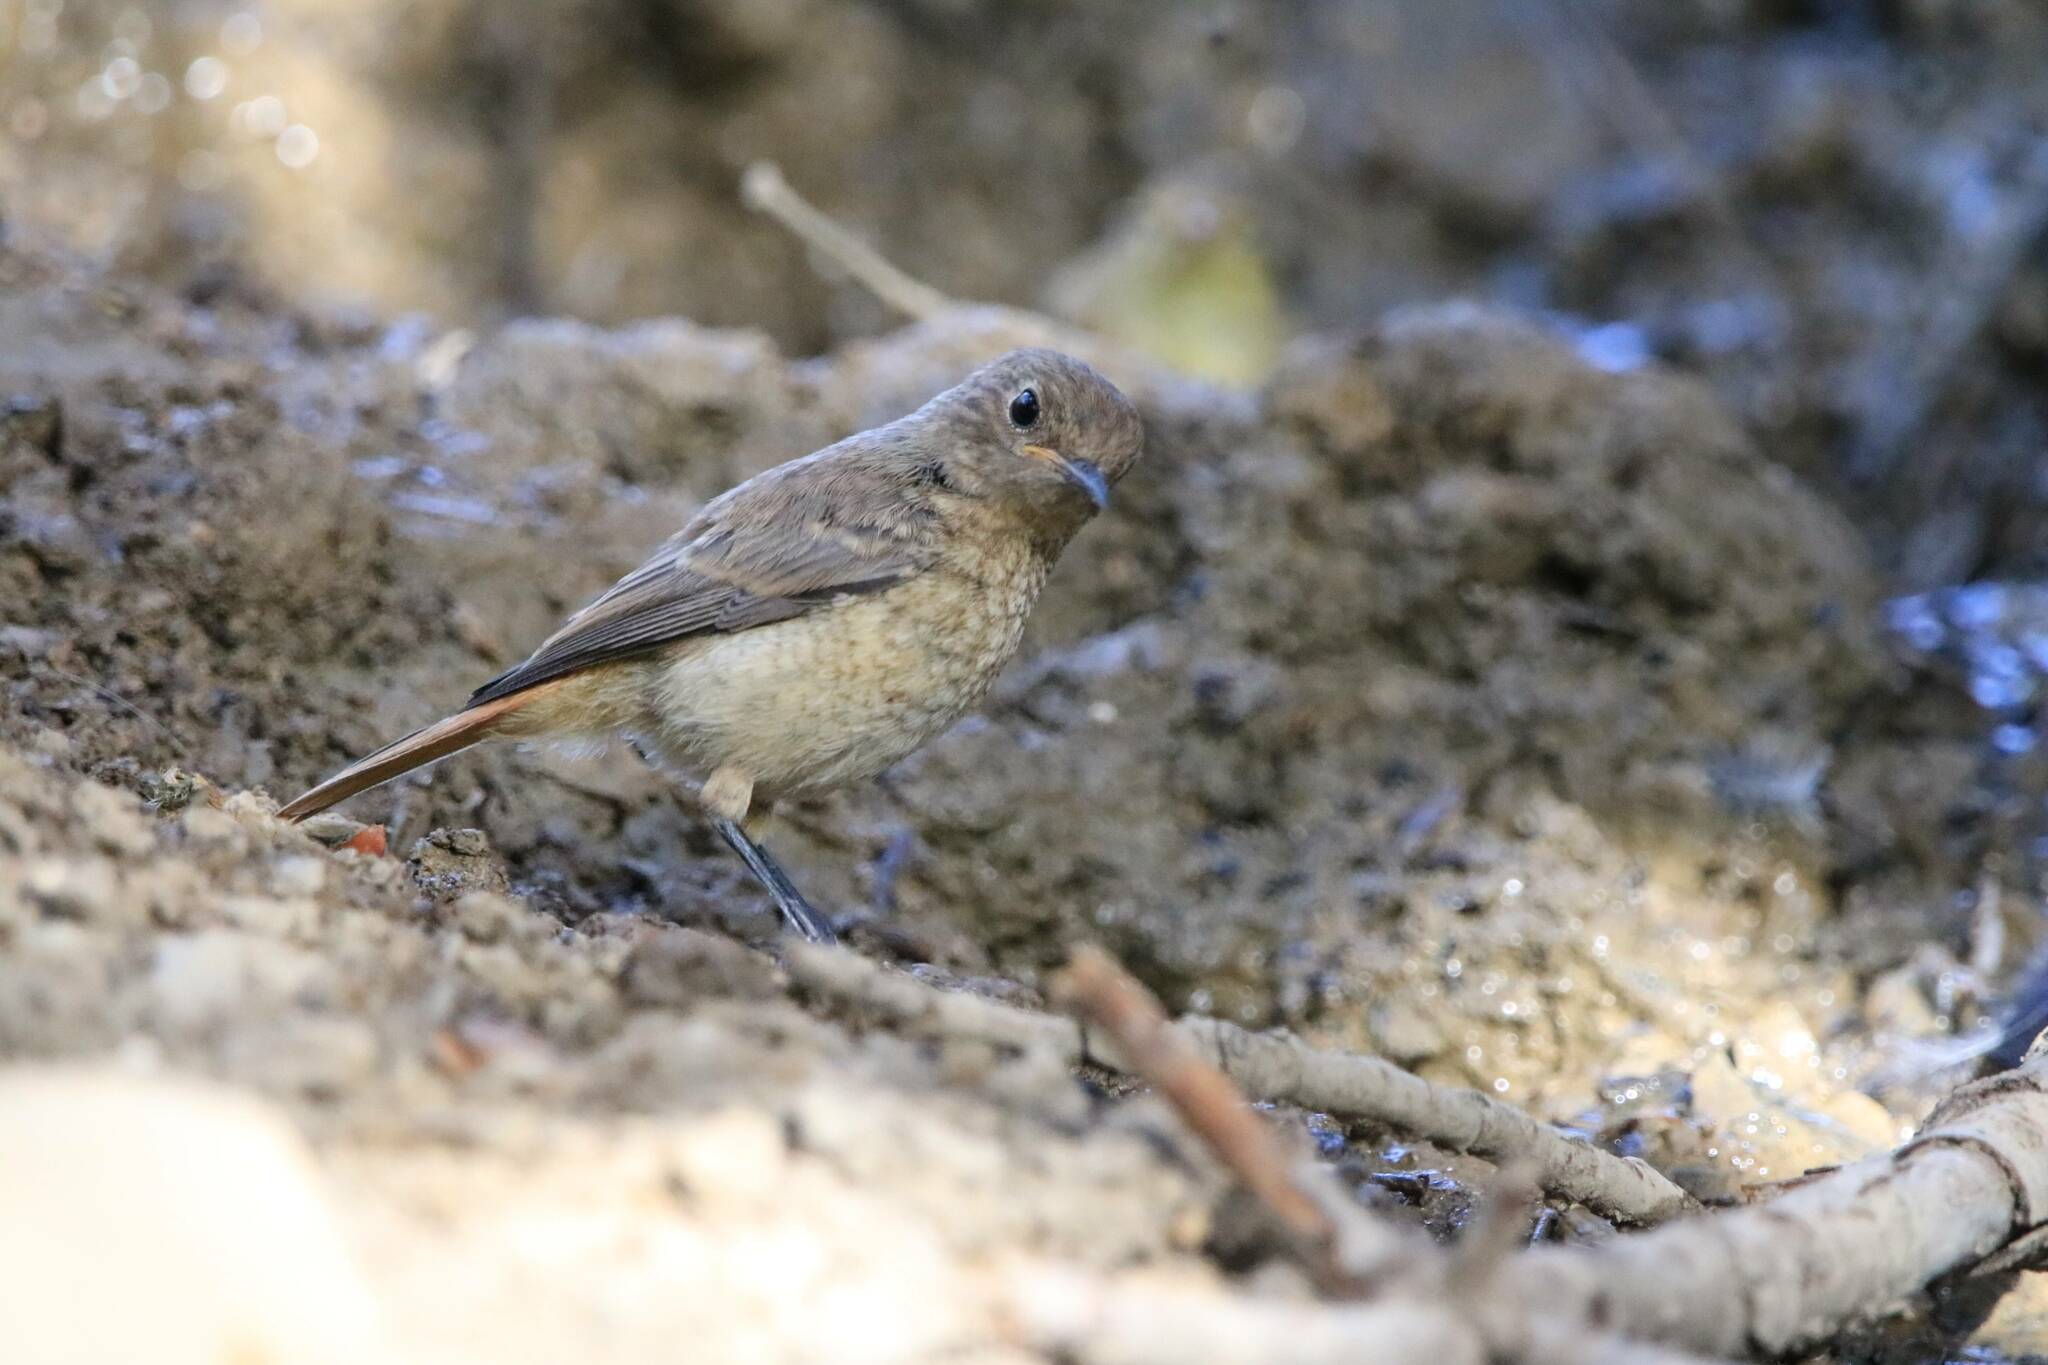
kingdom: Animalia
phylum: Chordata
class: Aves
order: Passeriformes
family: Muscicapidae
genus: Phoenicurus
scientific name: Phoenicurus moussieri
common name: Moussier's redstart
